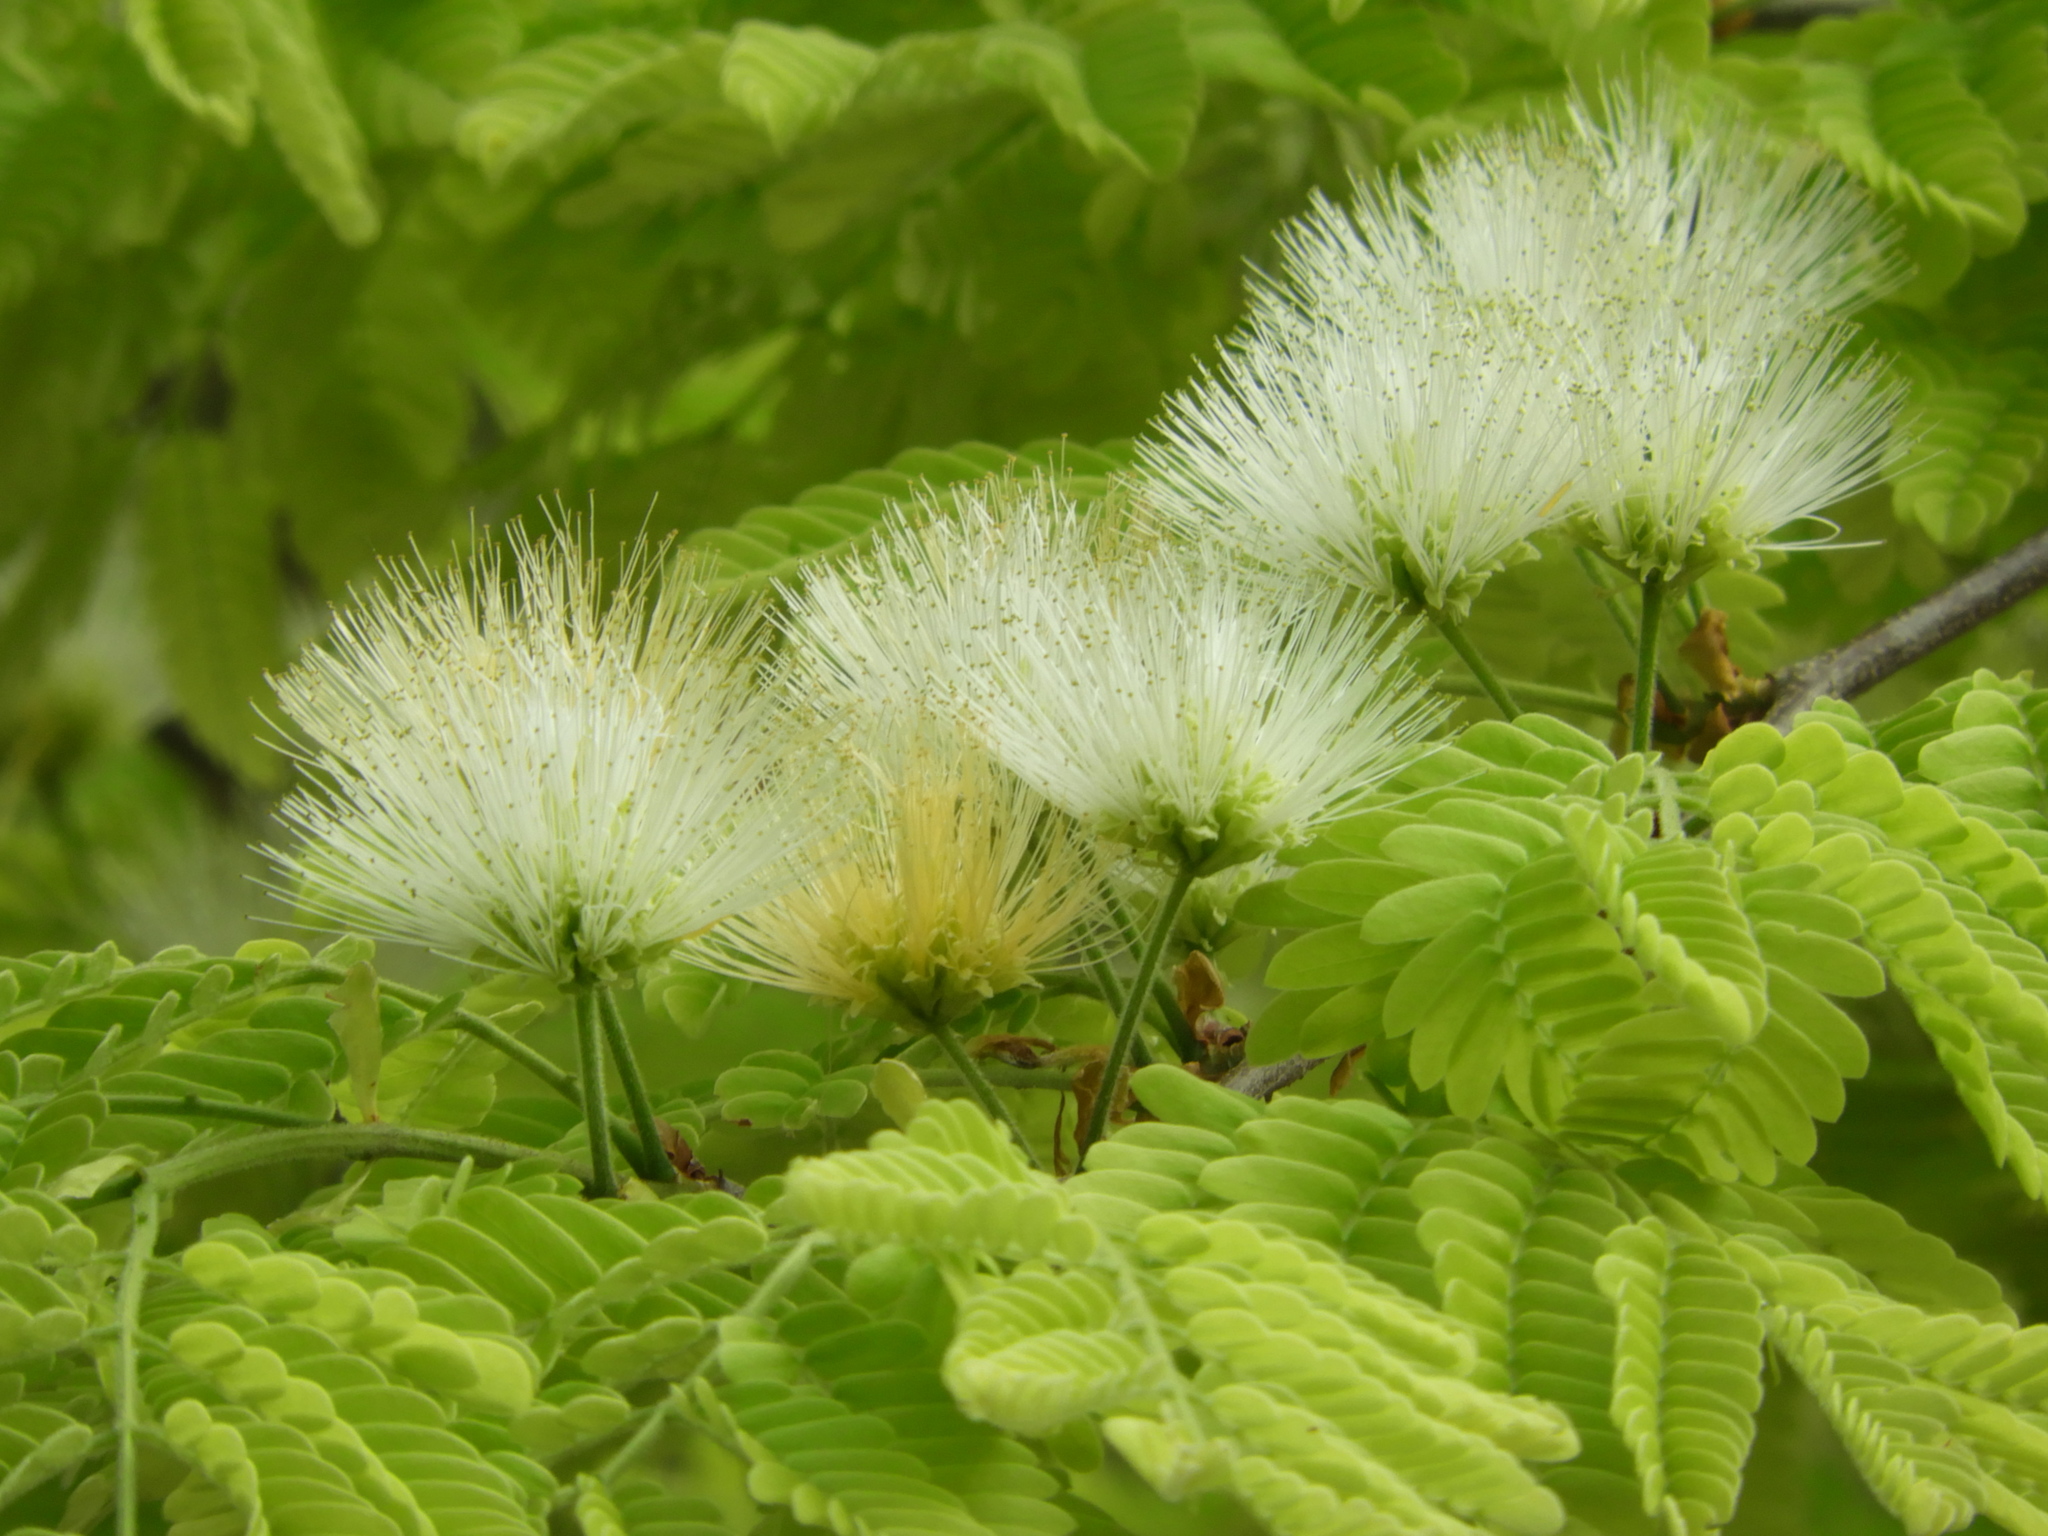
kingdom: Plantae
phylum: Tracheophyta
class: Magnoliopsida
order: Fabales
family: Fabaceae
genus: Chloroleucon
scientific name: Chloroleucon mangense
